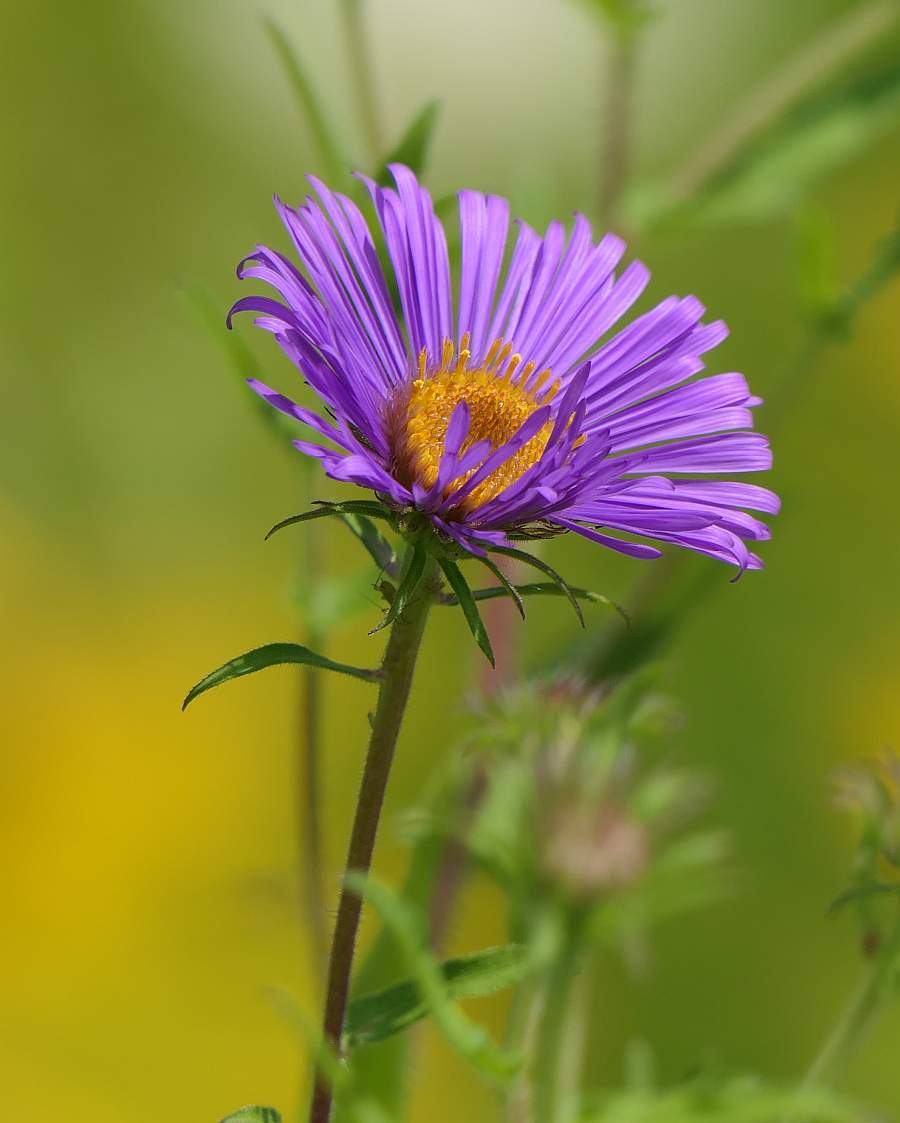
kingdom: Plantae
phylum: Tracheophyta
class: Magnoliopsida
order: Asterales
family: Asteraceae
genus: Symphyotrichum
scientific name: Symphyotrichum novae-angliae
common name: Michaelmas daisy
